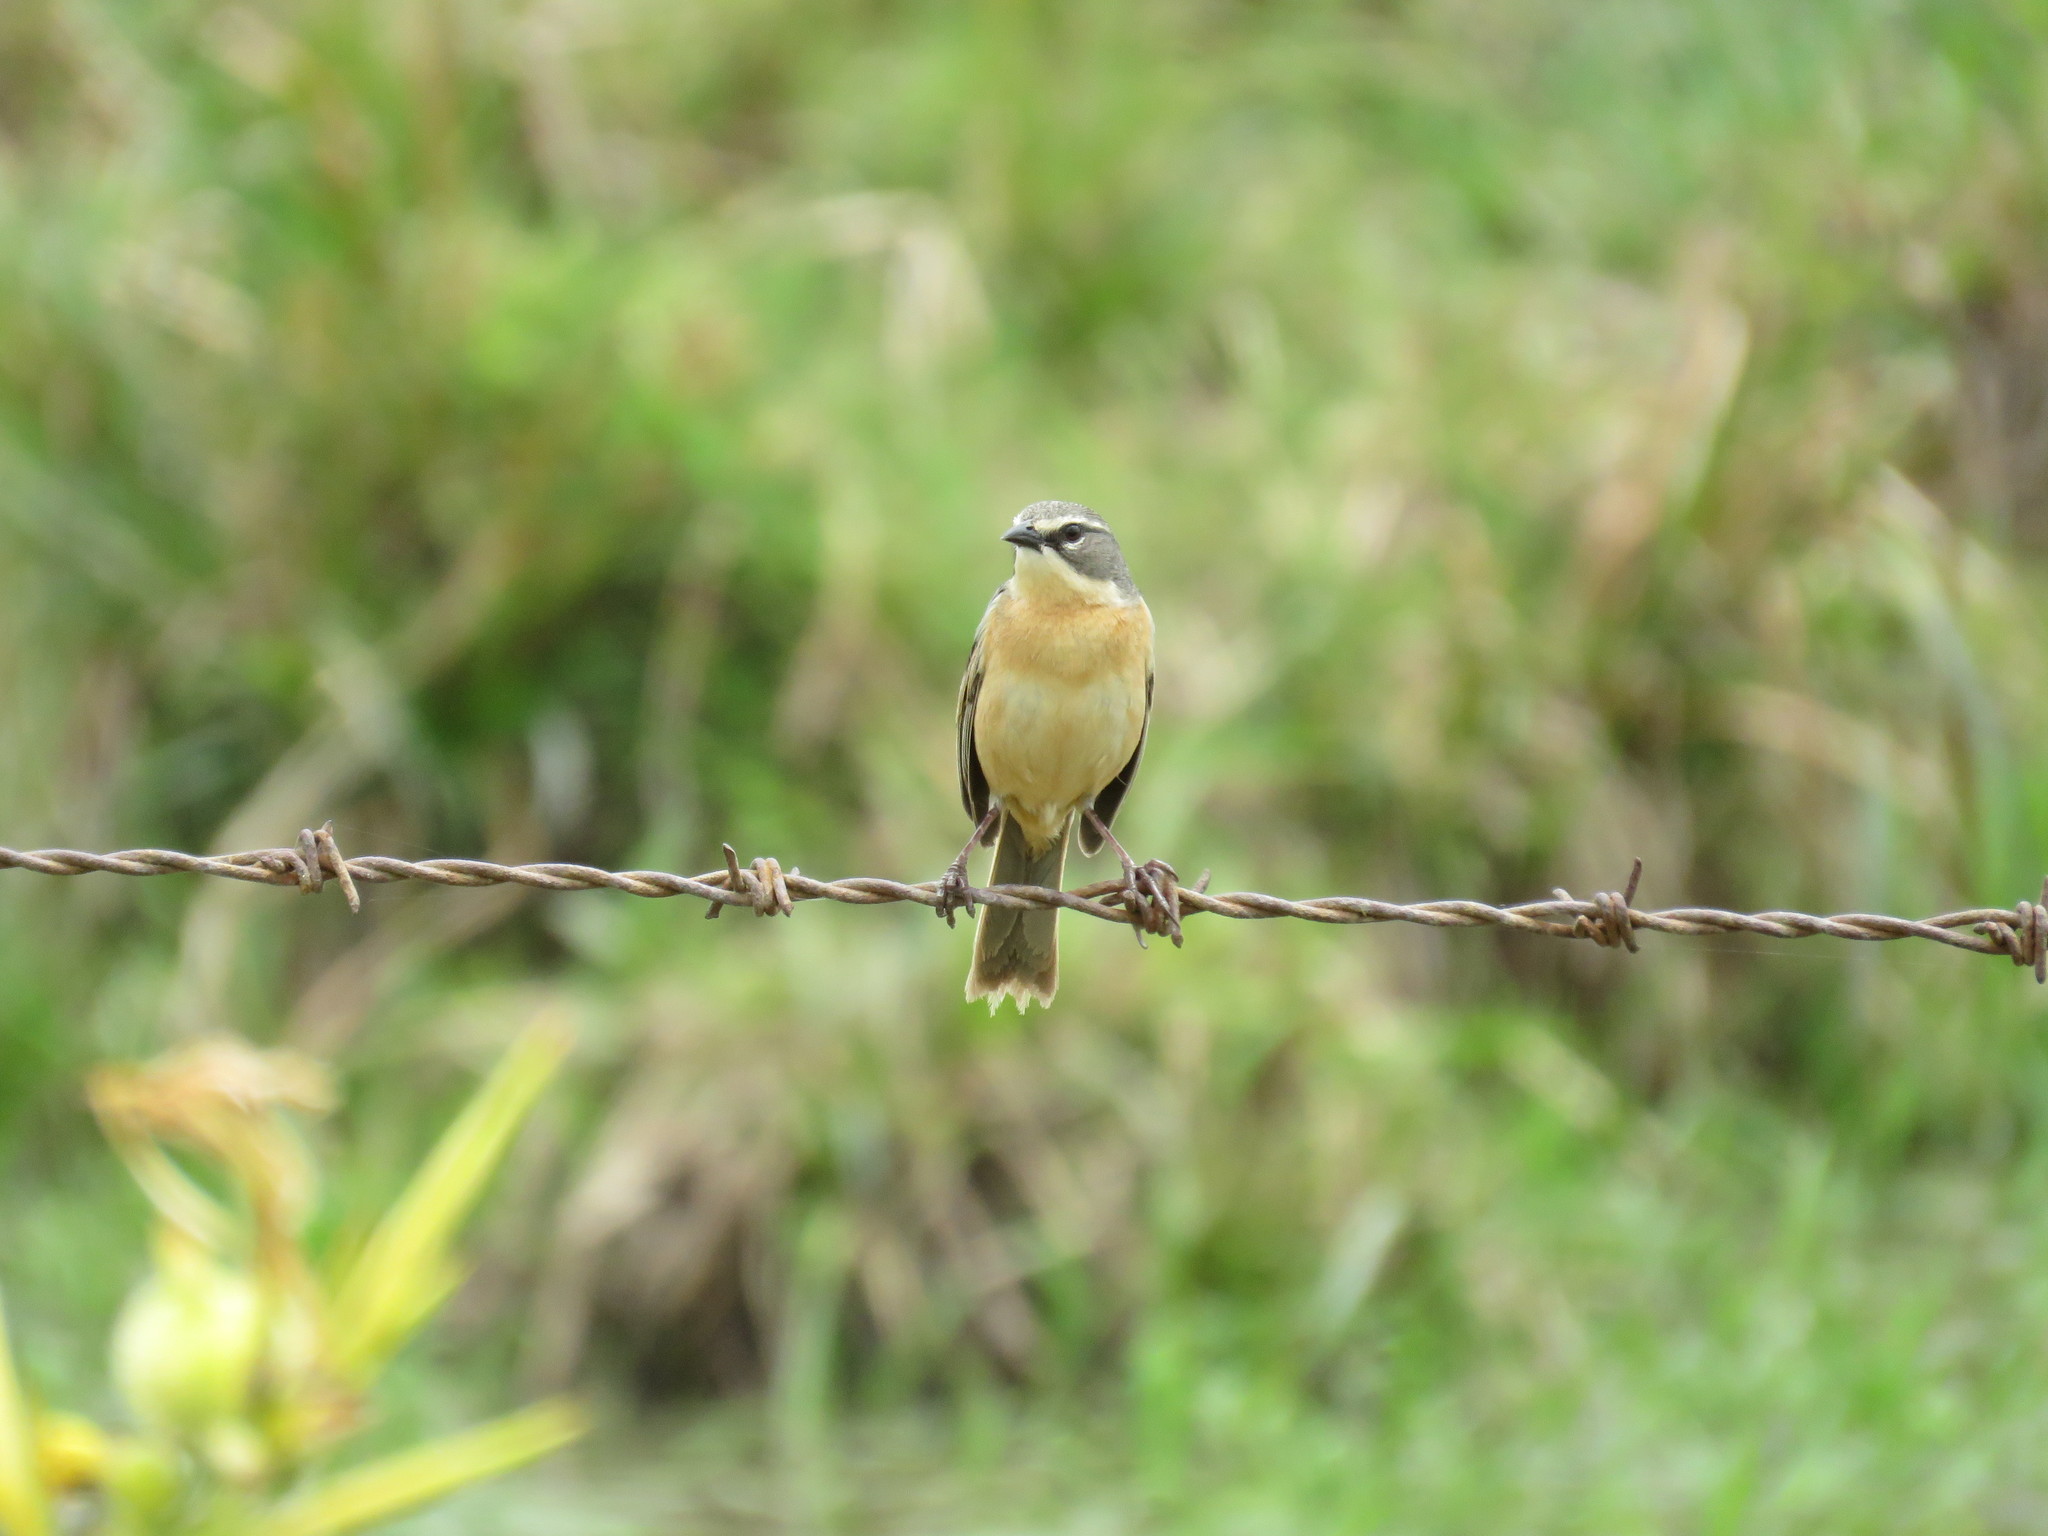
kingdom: Animalia
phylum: Chordata
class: Aves
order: Passeriformes
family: Thraupidae
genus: Donacospiza
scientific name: Donacospiza albifrons
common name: Long-tailed reed finch
